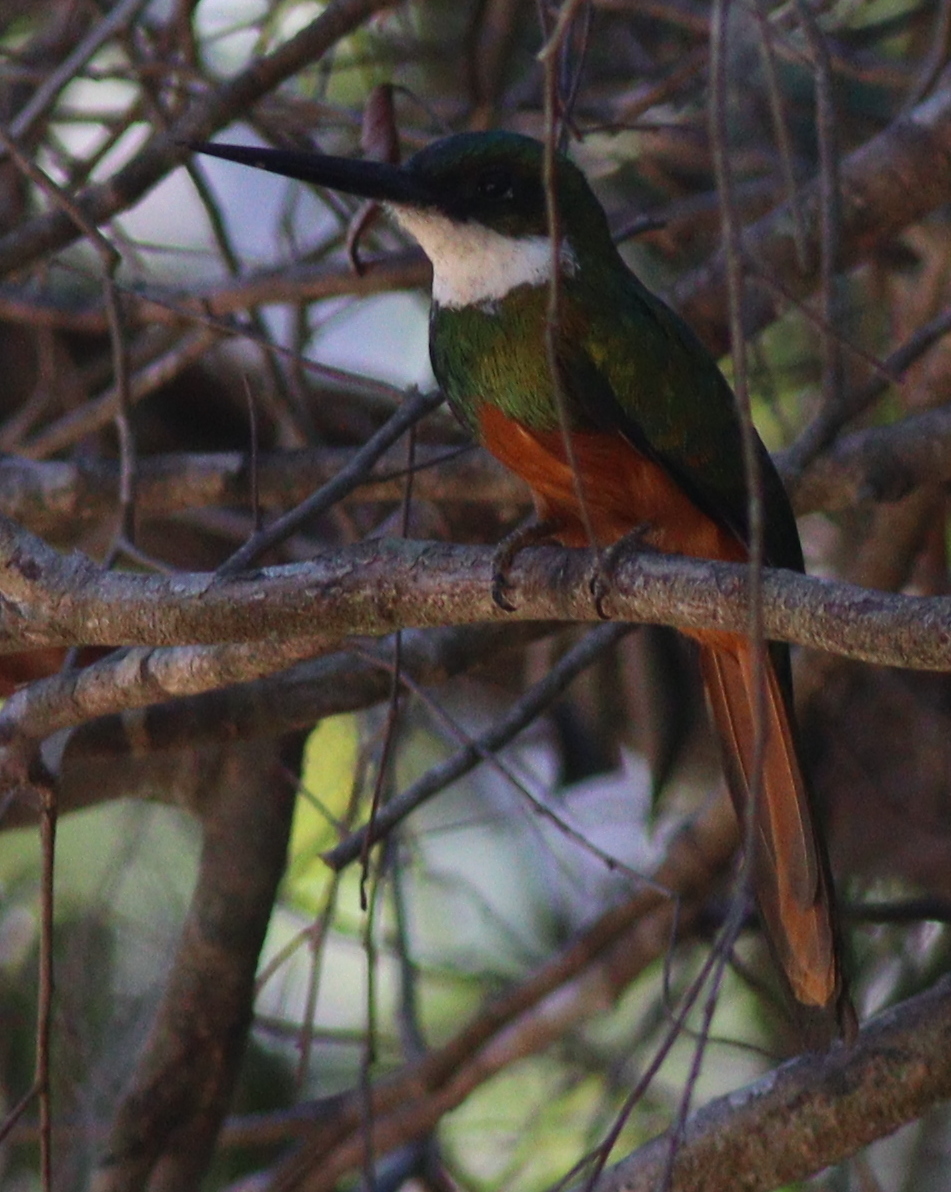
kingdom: Animalia
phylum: Chordata
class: Aves
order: Piciformes
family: Galbulidae
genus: Galbula
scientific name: Galbula ruficauda
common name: Rufous-tailed jacamar
